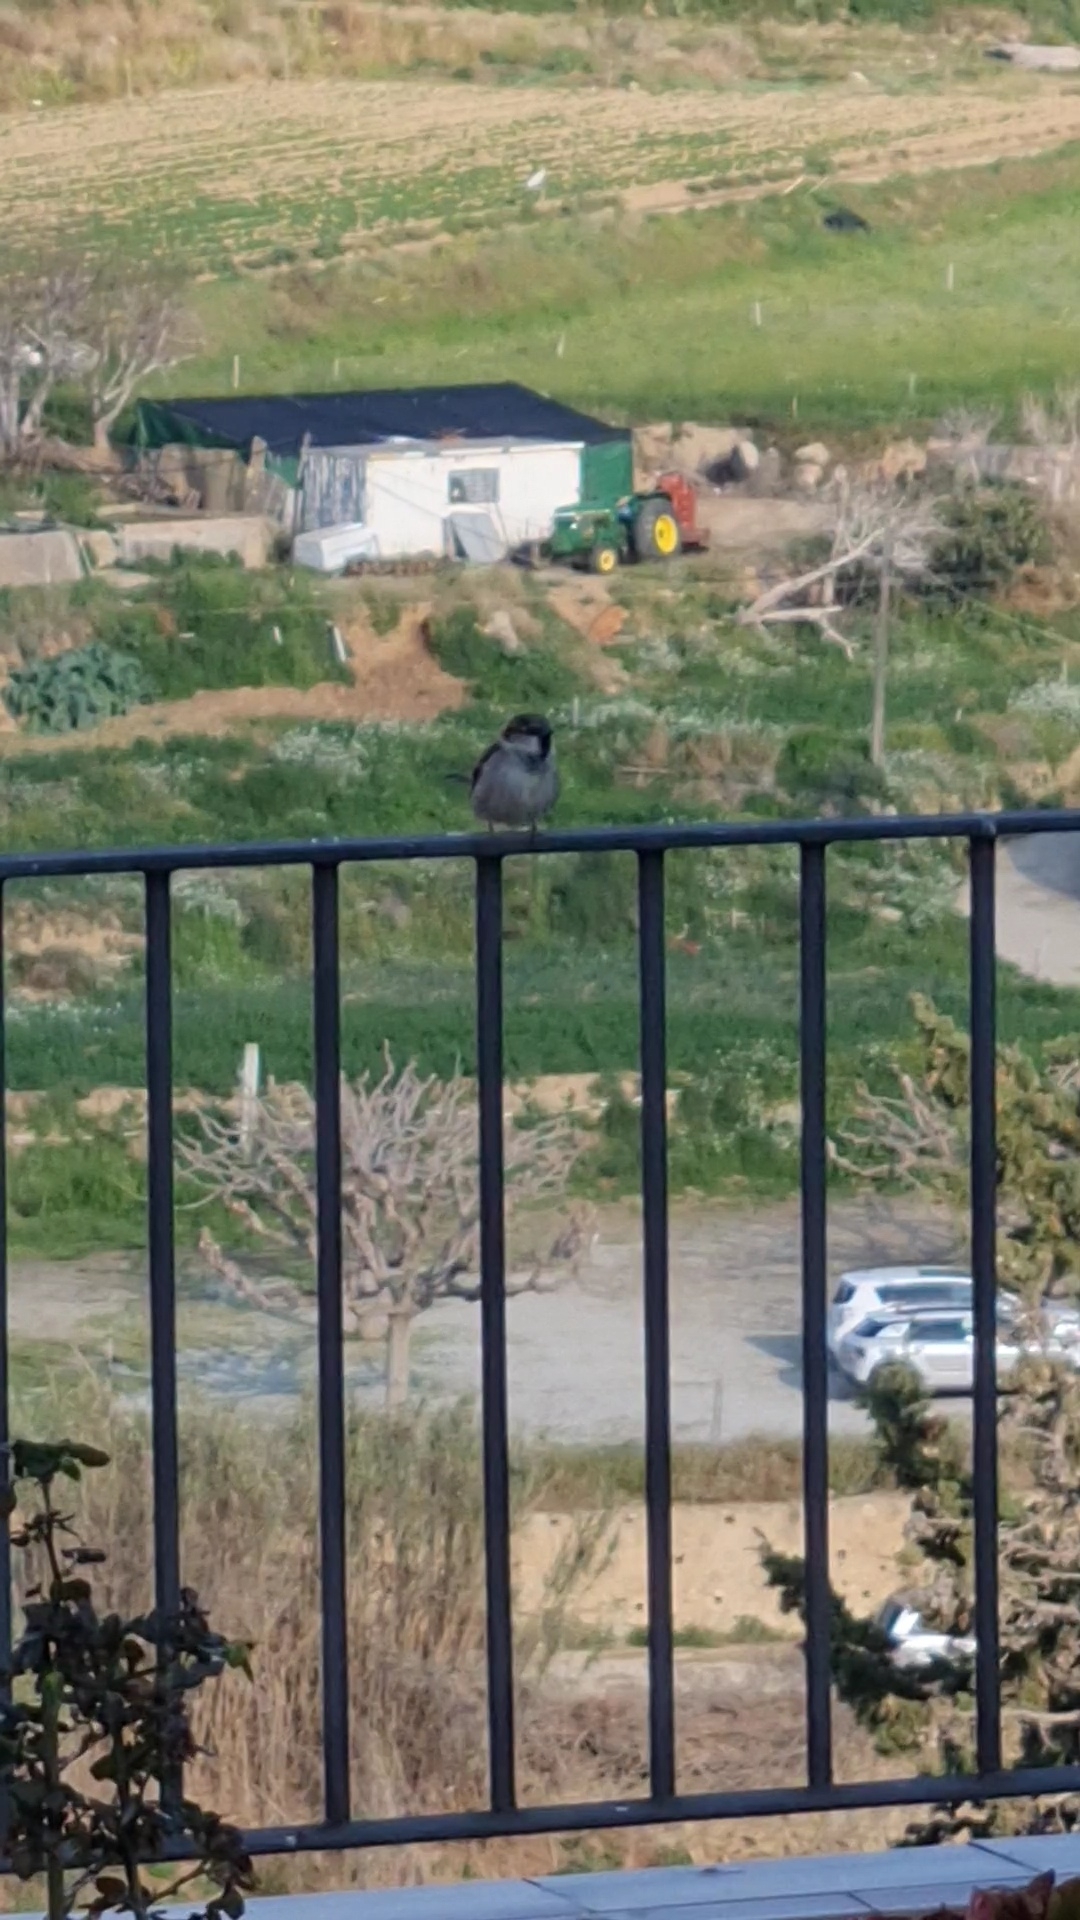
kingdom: Animalia
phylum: Chordata
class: Aves
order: Passeriformes
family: Passeridae
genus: Passer
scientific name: Passer domesticus
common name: House sparrow
